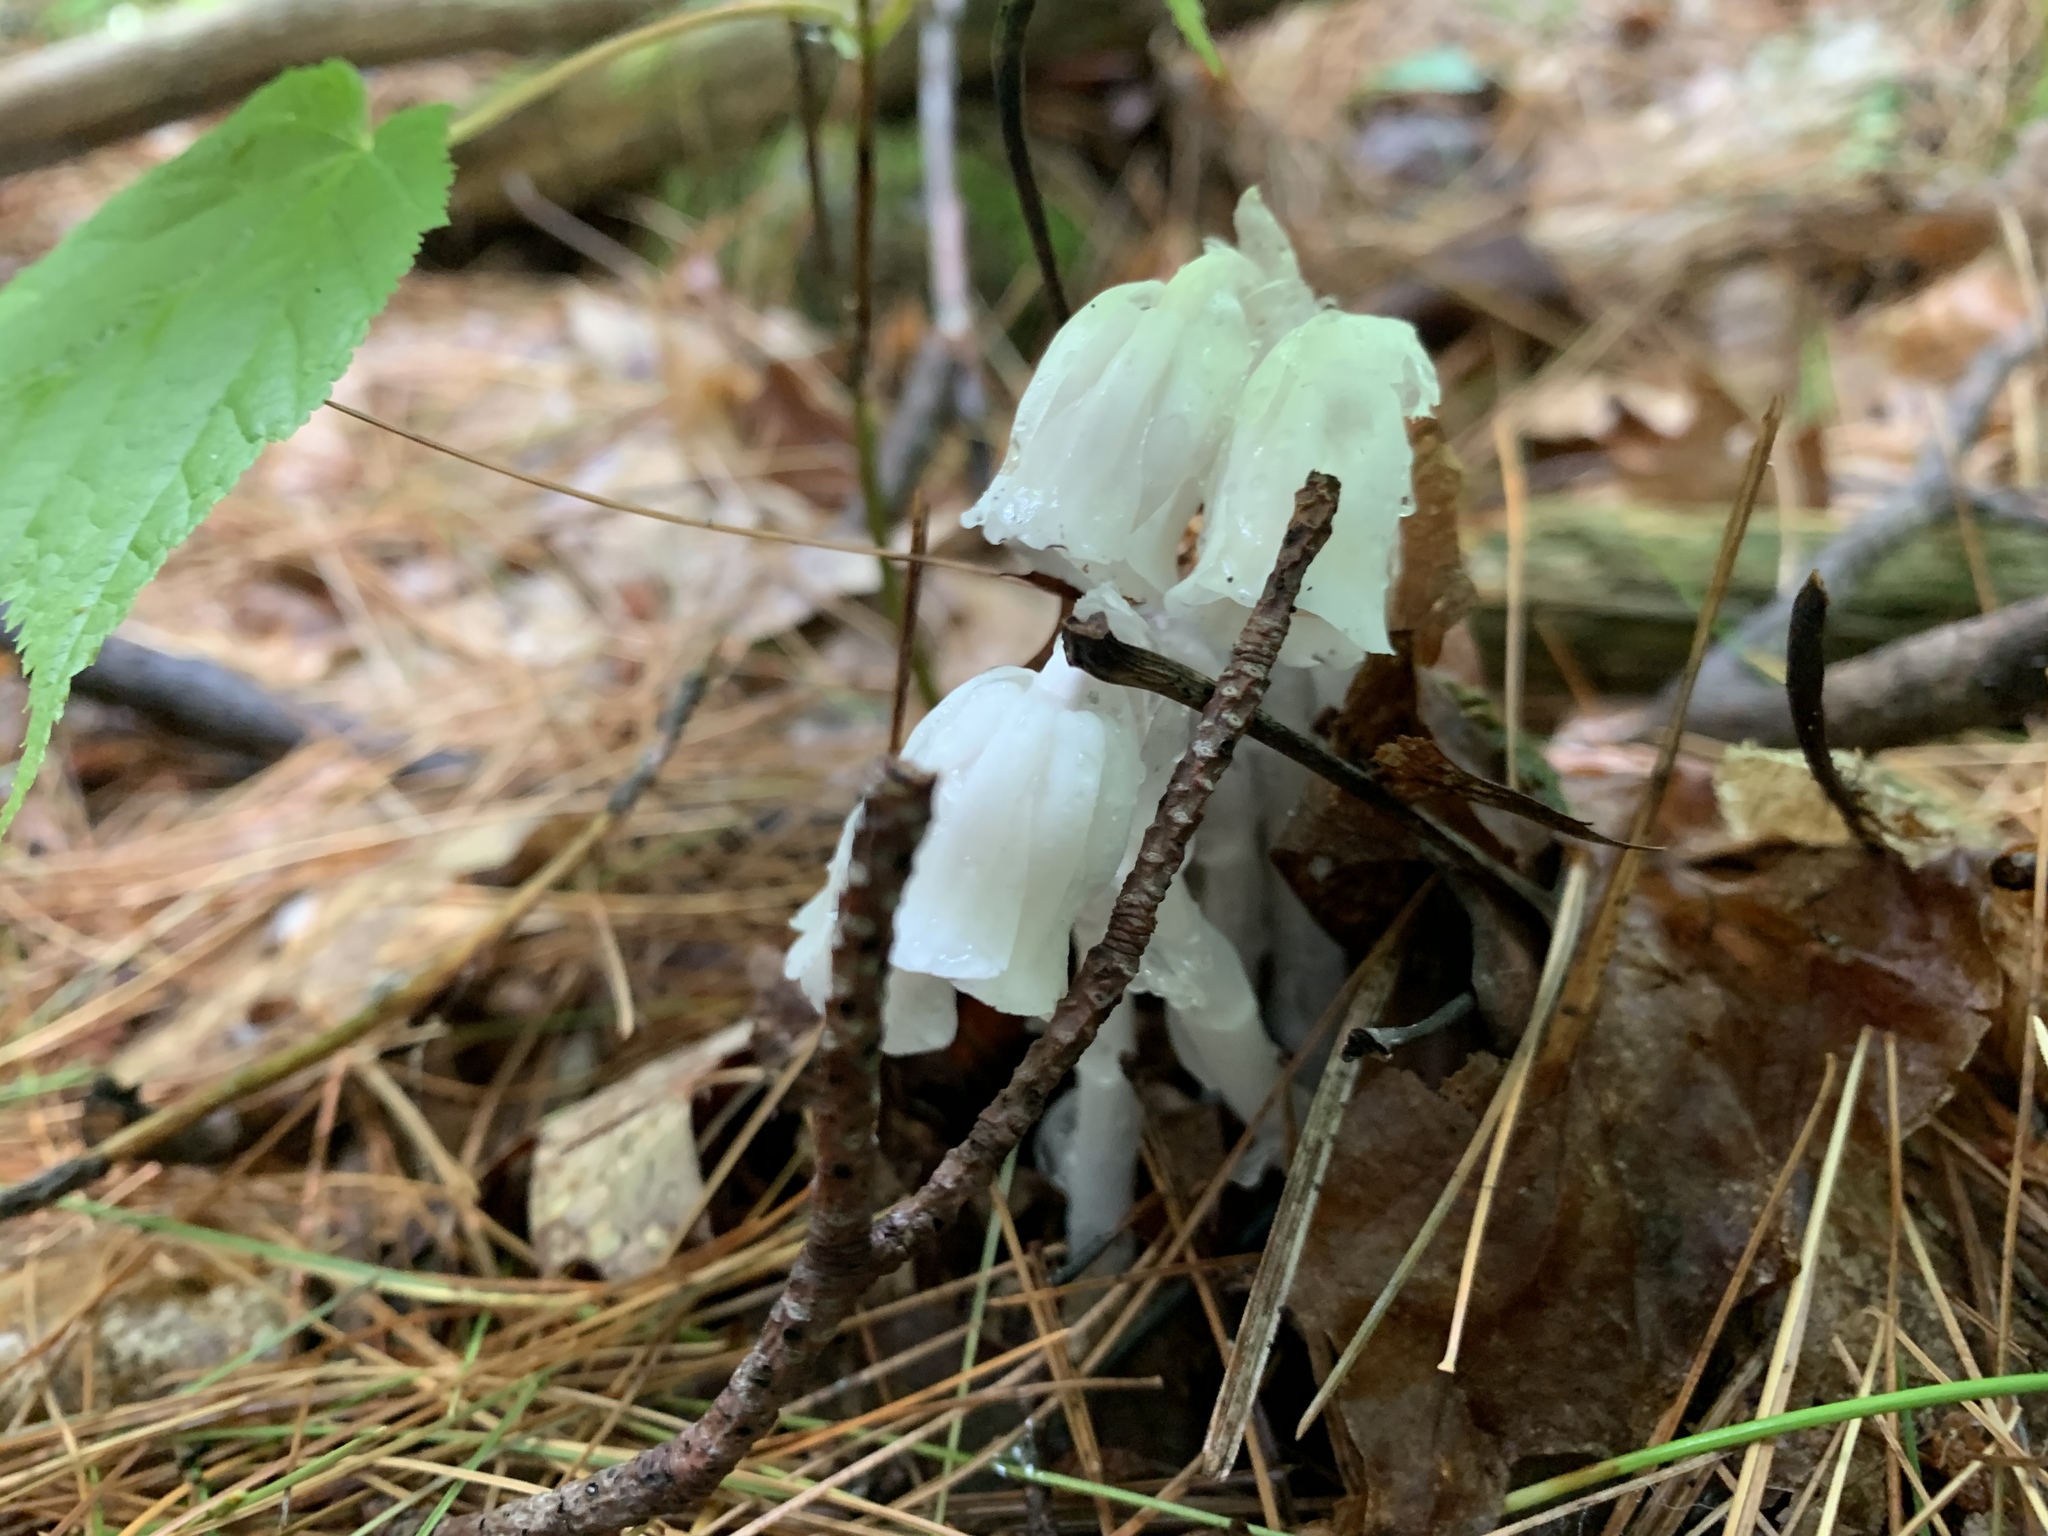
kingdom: Plantae
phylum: Tracheophyta
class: Magnoliopsida
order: Ericales
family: Ericaceae
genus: Monotropa
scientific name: Monotropa uniflora
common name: Convulsion root
